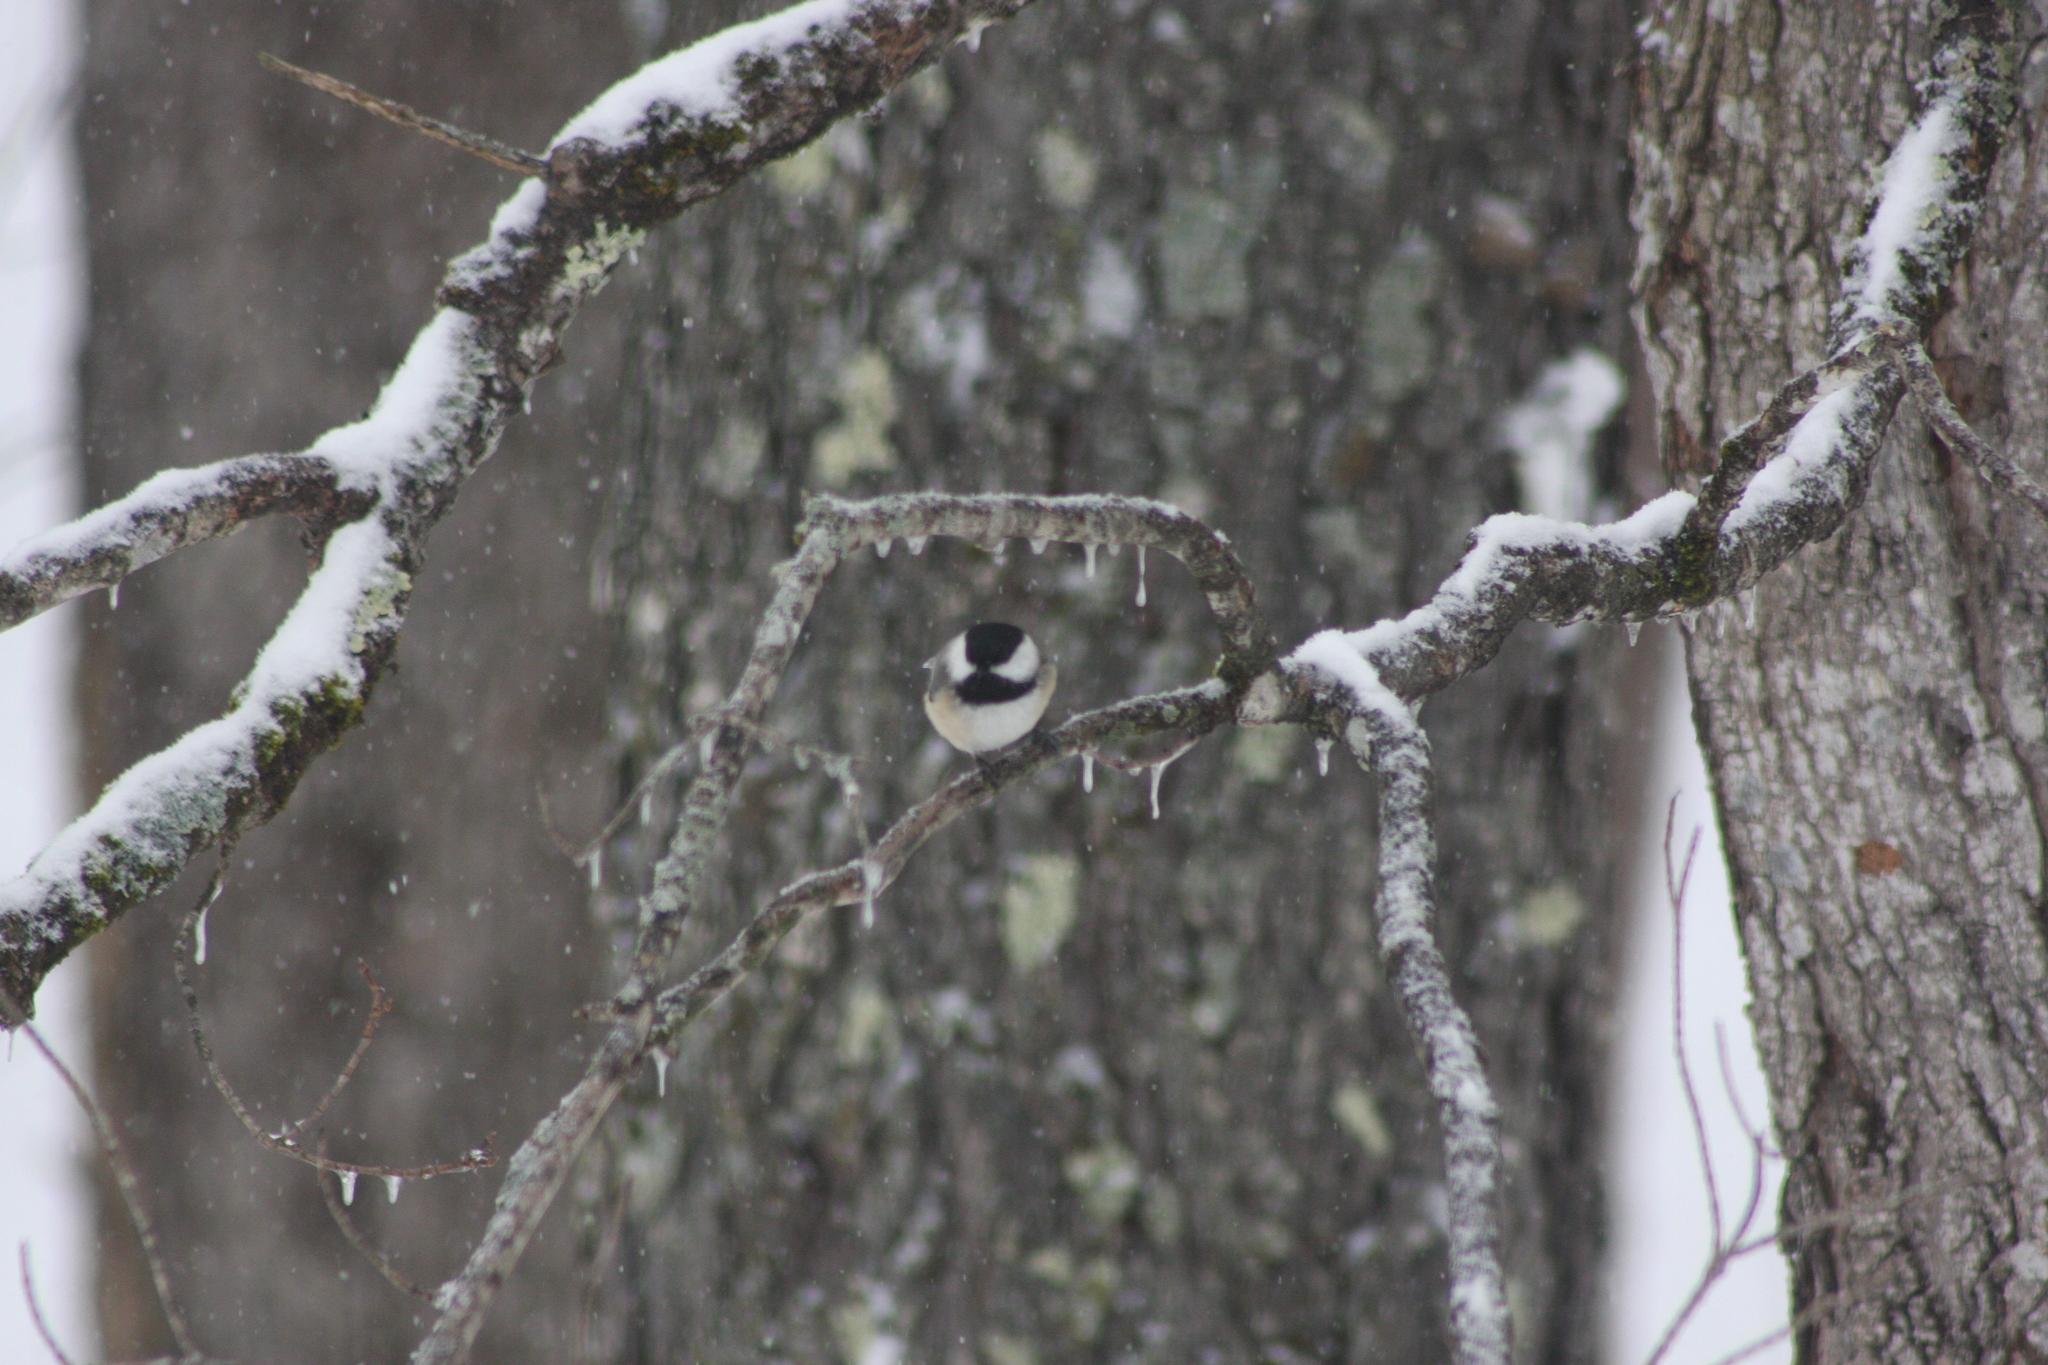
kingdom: Animalia
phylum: Chordata
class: Aves
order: Passeriformes
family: Paridae
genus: Poecile
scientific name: Poecile atricapillus
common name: Black-capped chickadee
